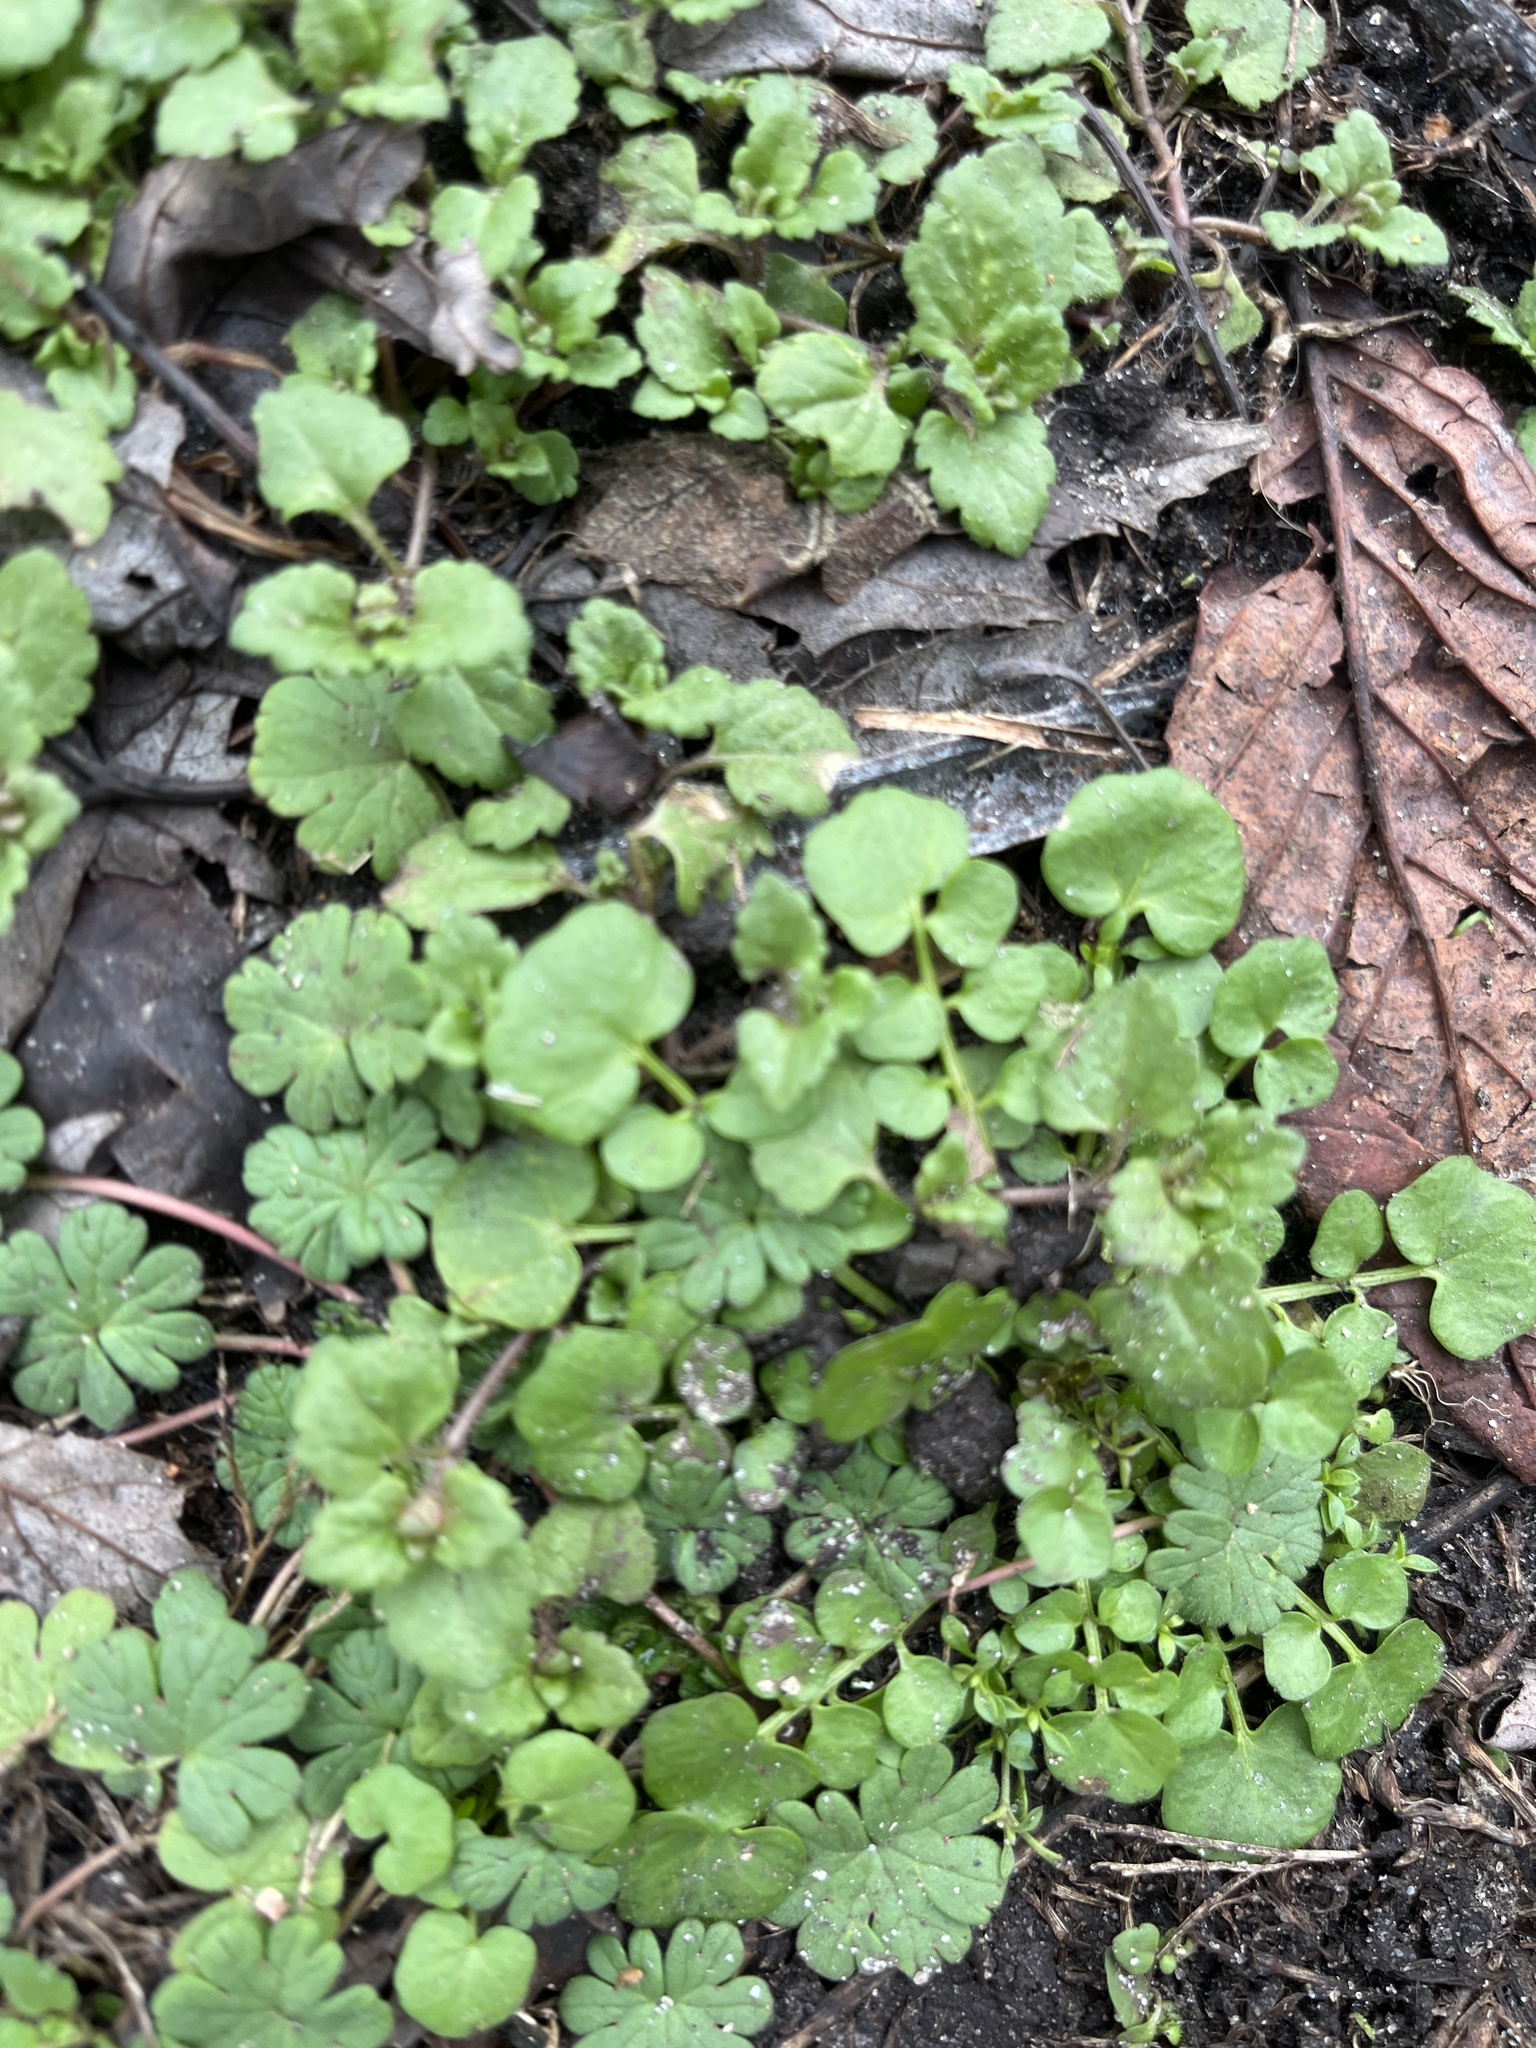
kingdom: Plantae
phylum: Tracheophyta
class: Magnoliopsida
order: Brassicales
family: Brassicaceae
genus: Cardamine
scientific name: Cardamine hirsuta
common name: Hairy bittercress
